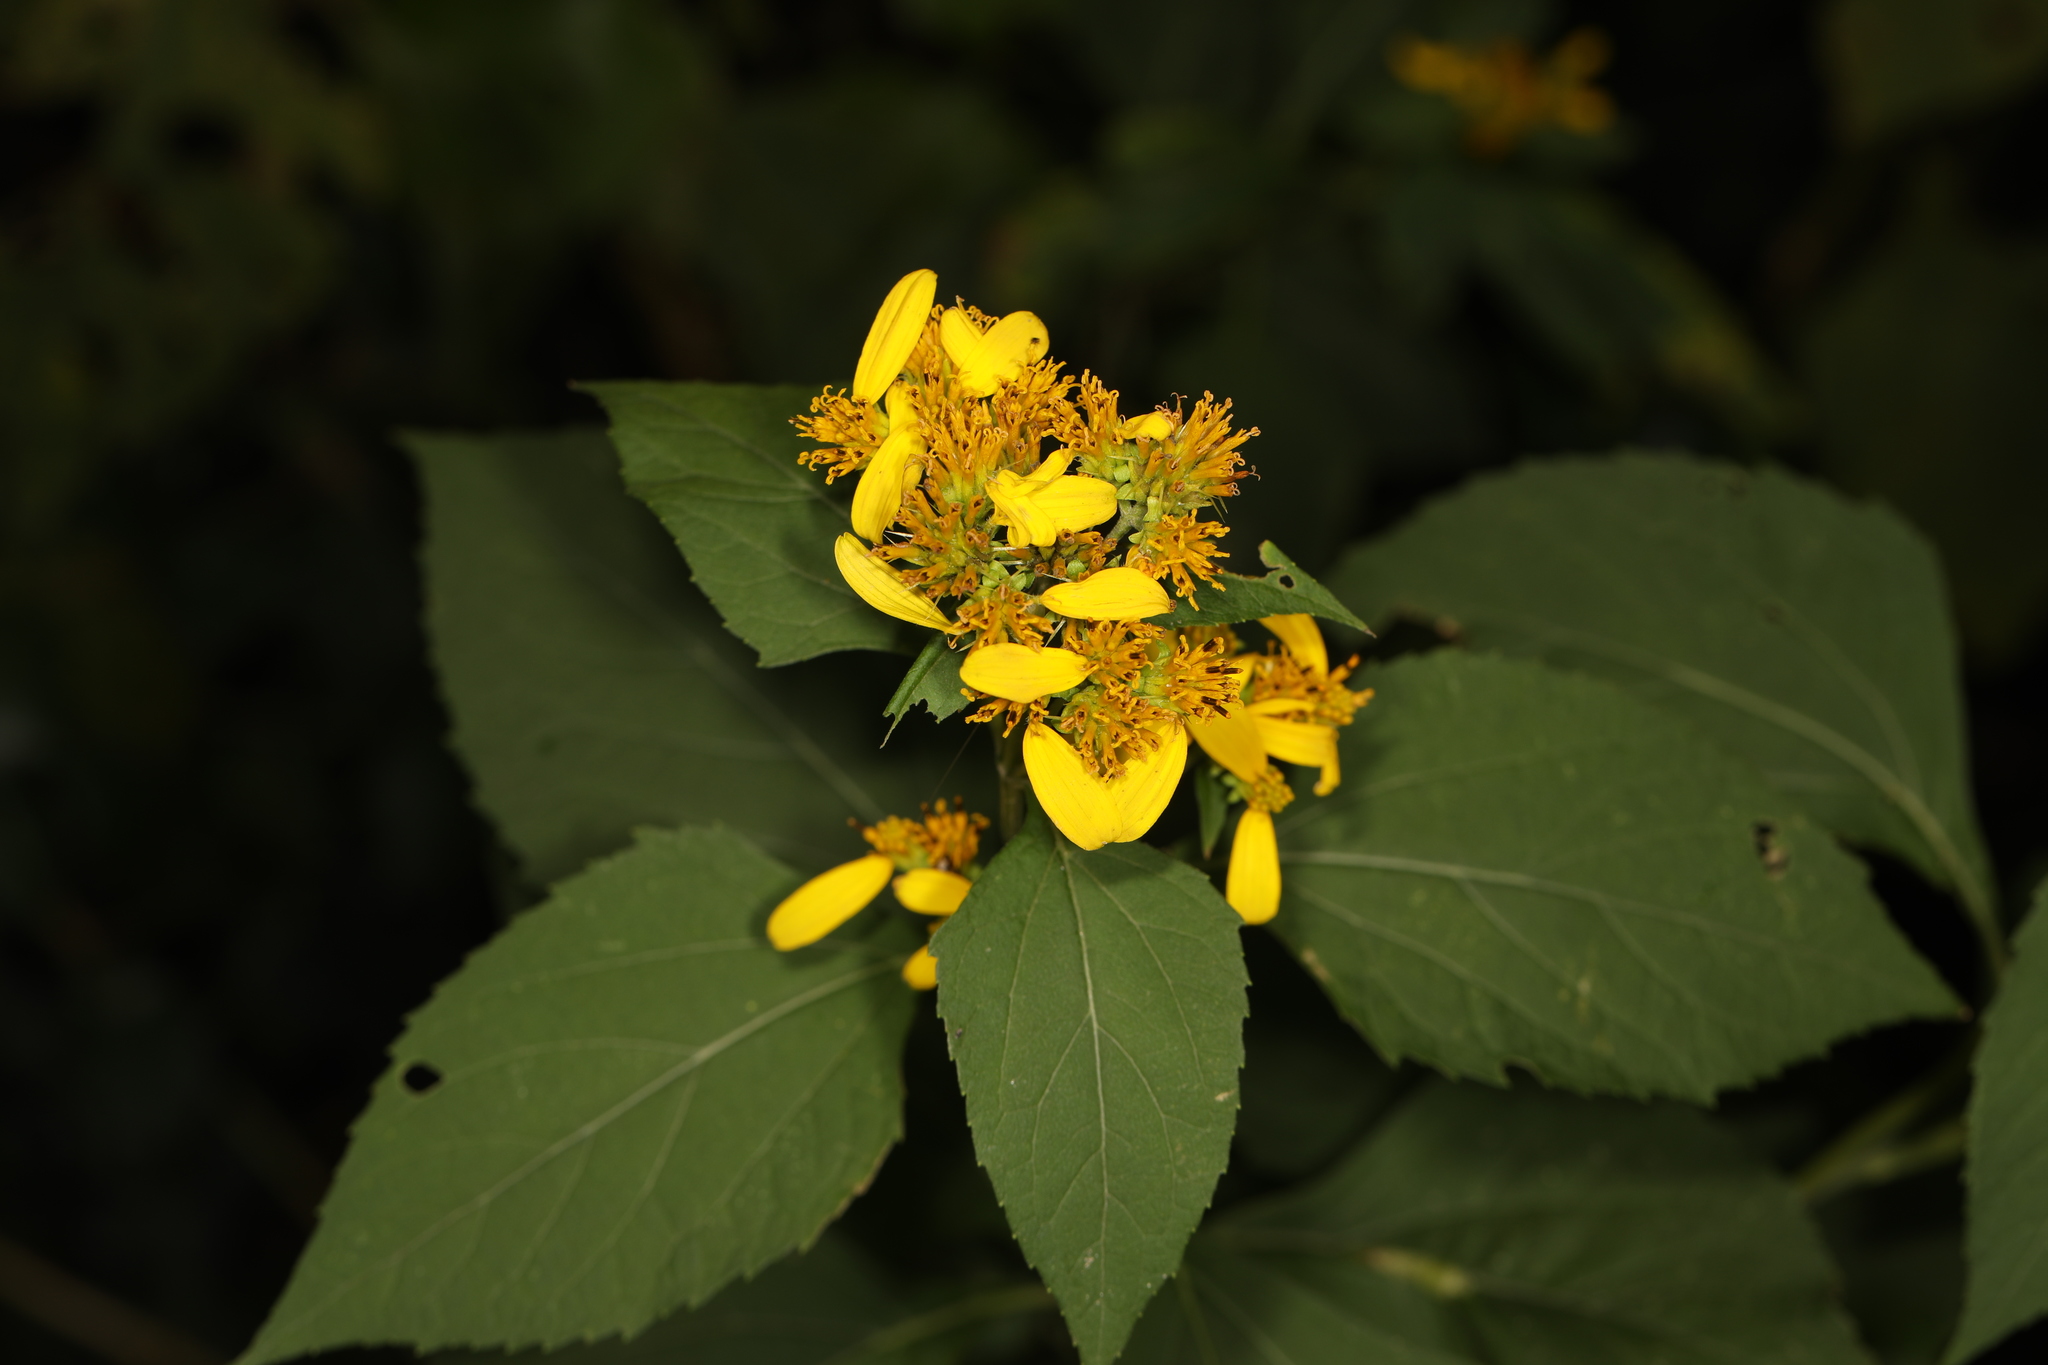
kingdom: Plantae
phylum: Tracheophyta
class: Magnoliopsida
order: Asterales
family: Asteraceae
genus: Verbesina
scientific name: Verbesina occidentalis
